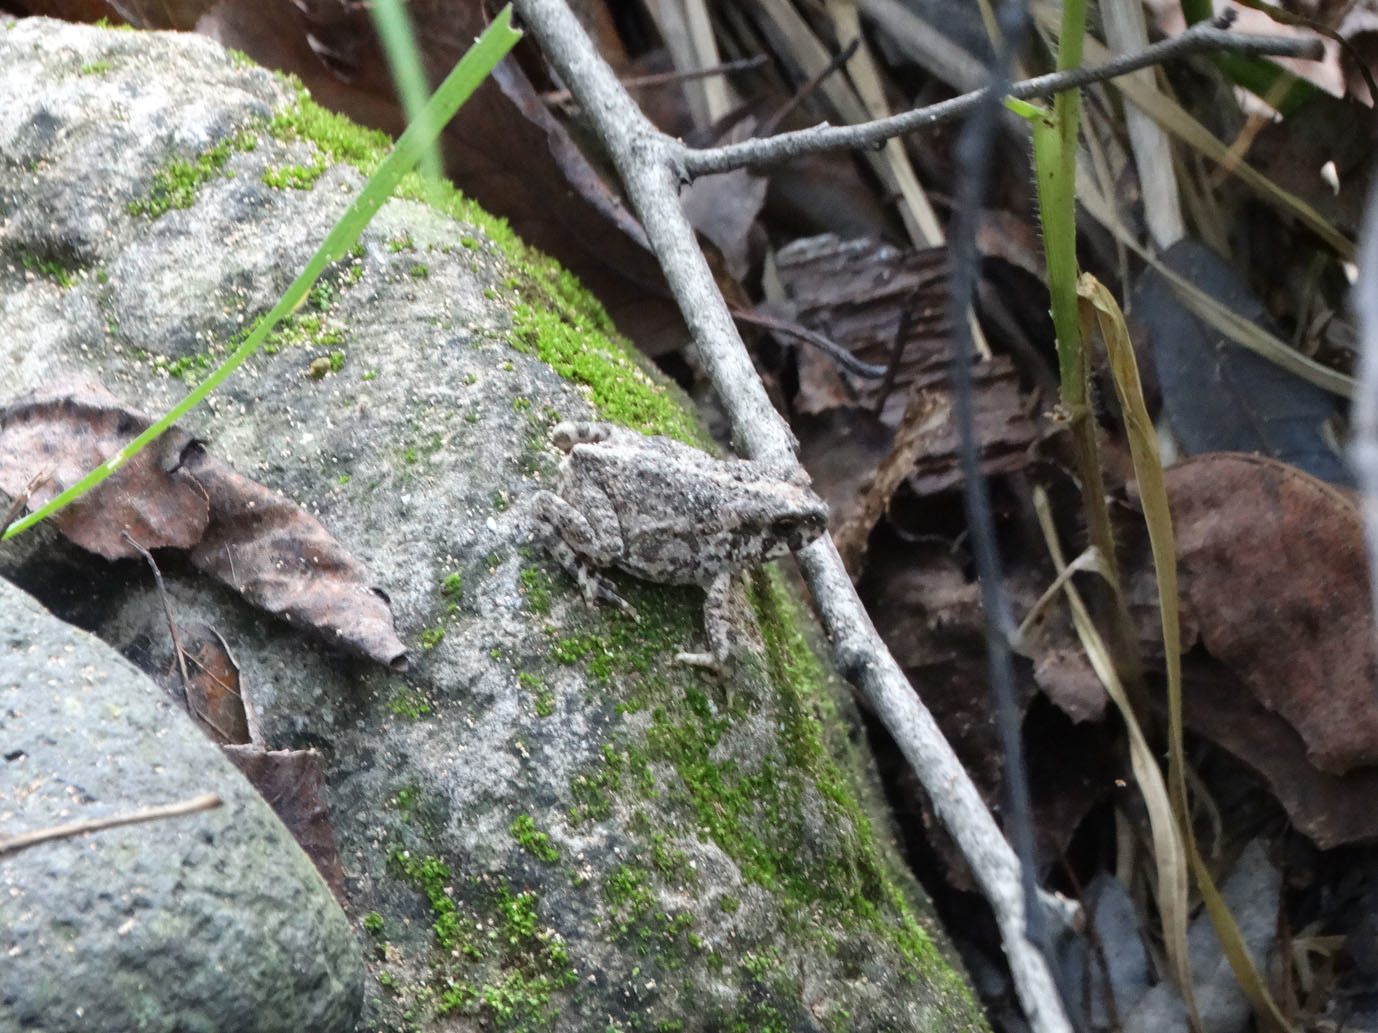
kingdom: Animalia
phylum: Chordata
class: Amphibia
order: Anura
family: Bufonidae
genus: Incilius
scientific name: Incilius occidentalis
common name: Pine toad
